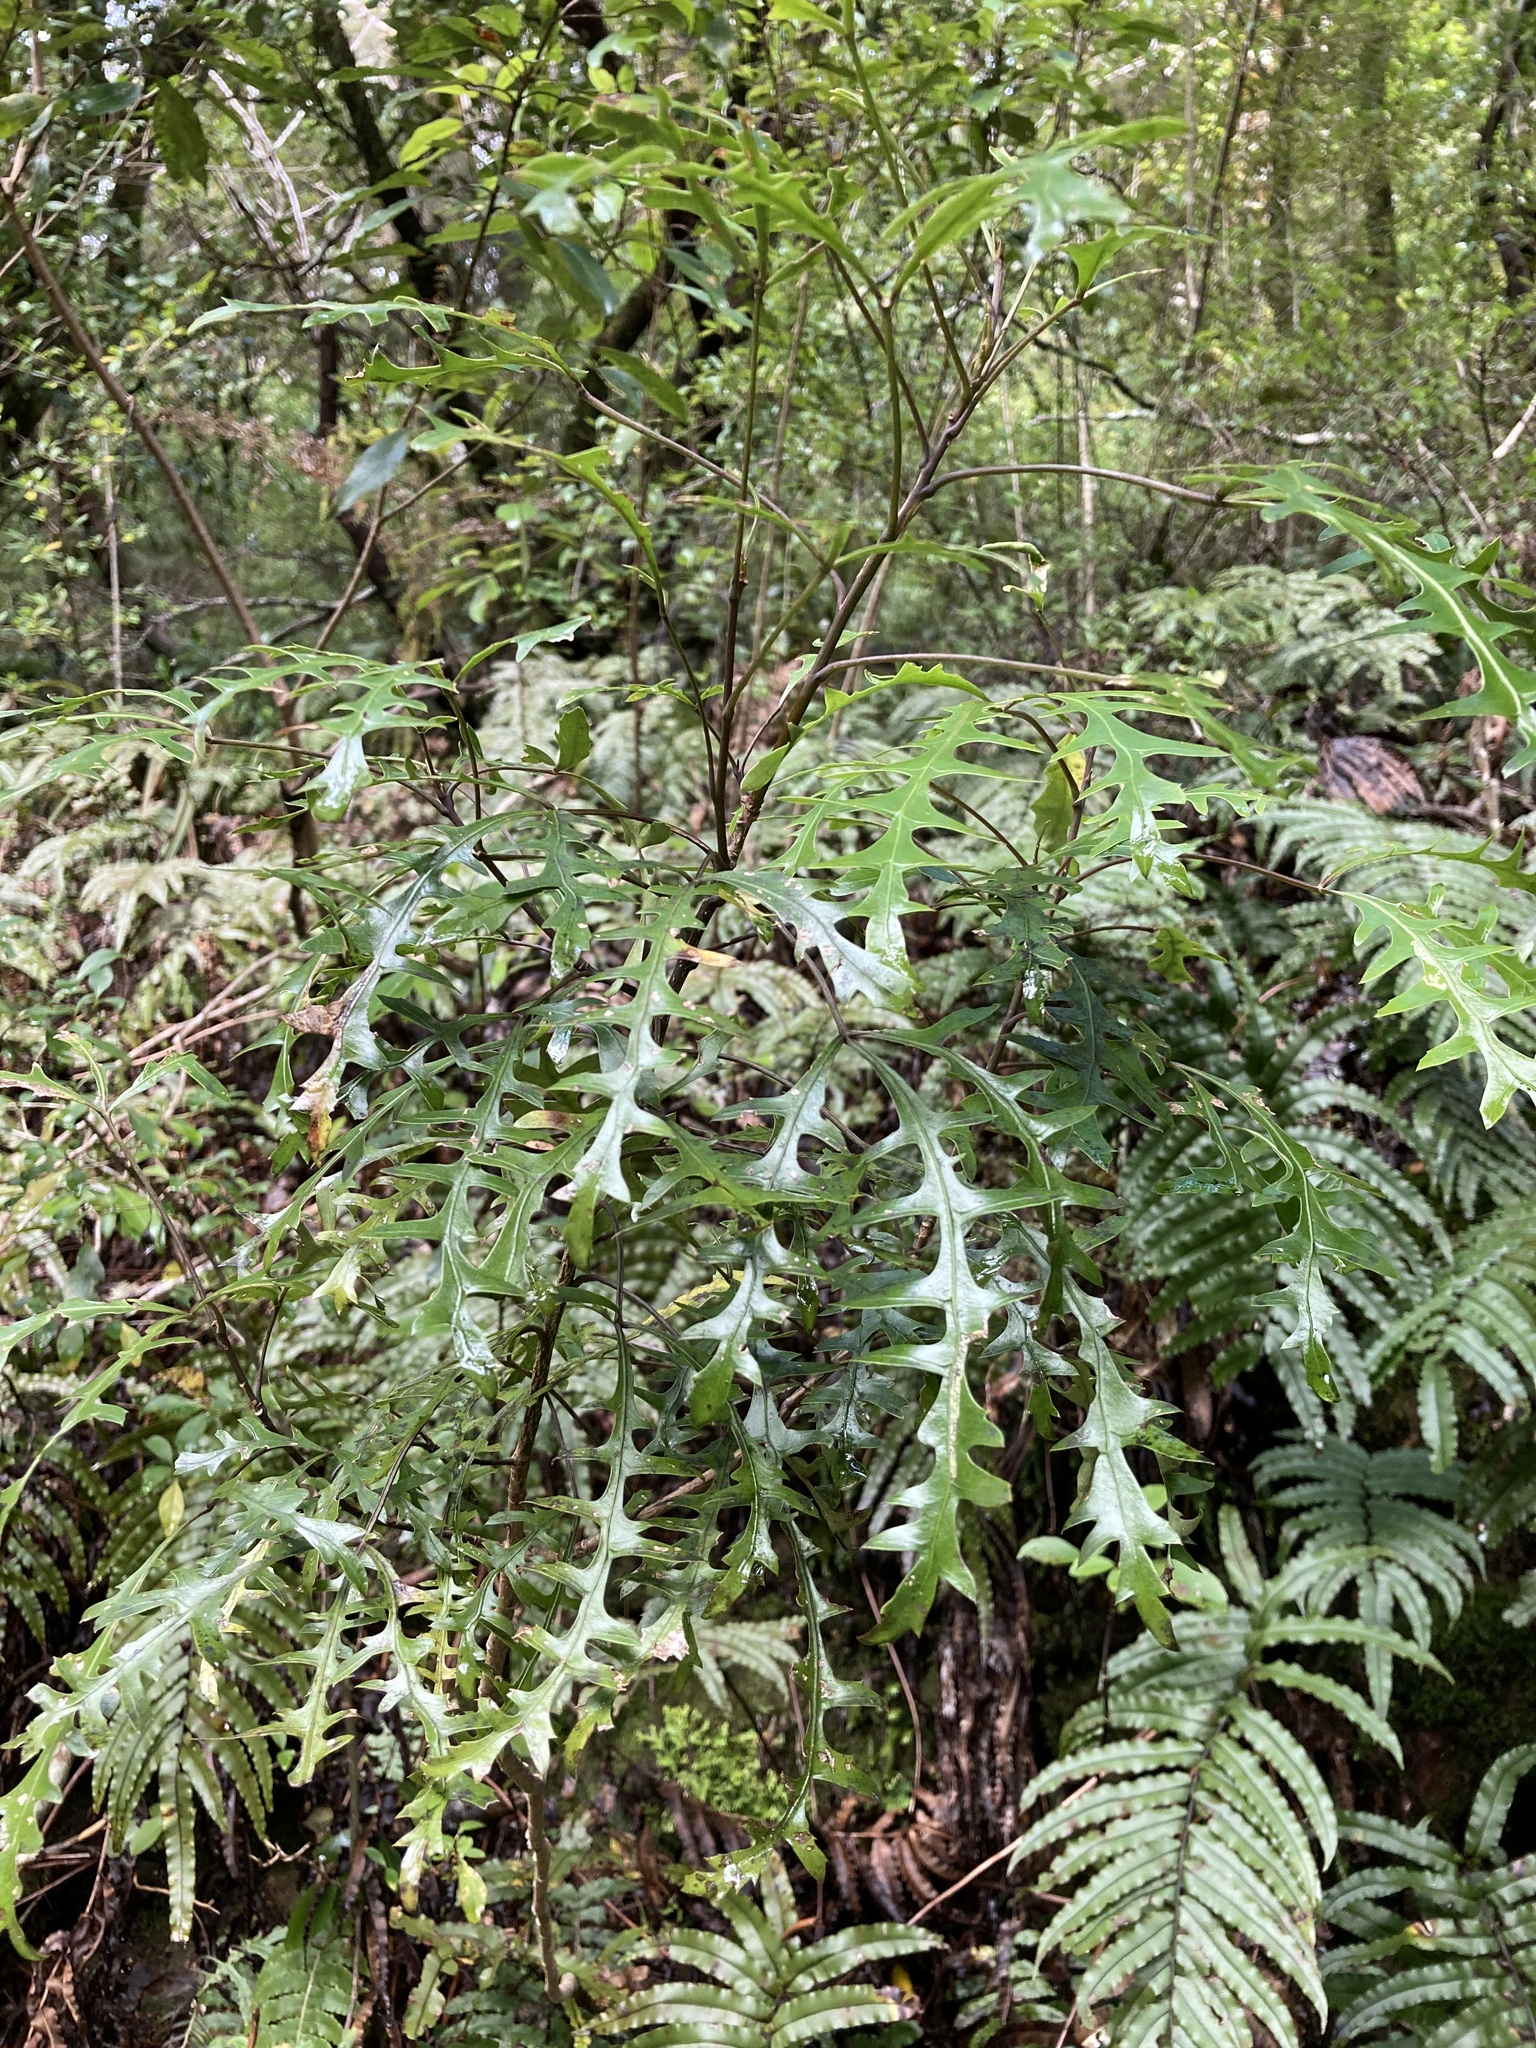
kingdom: Plantae
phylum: Tracheophyta
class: Magnoliopsida
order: Apiales
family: Araliaceae
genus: Raukaua
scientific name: Raukaua simplex
